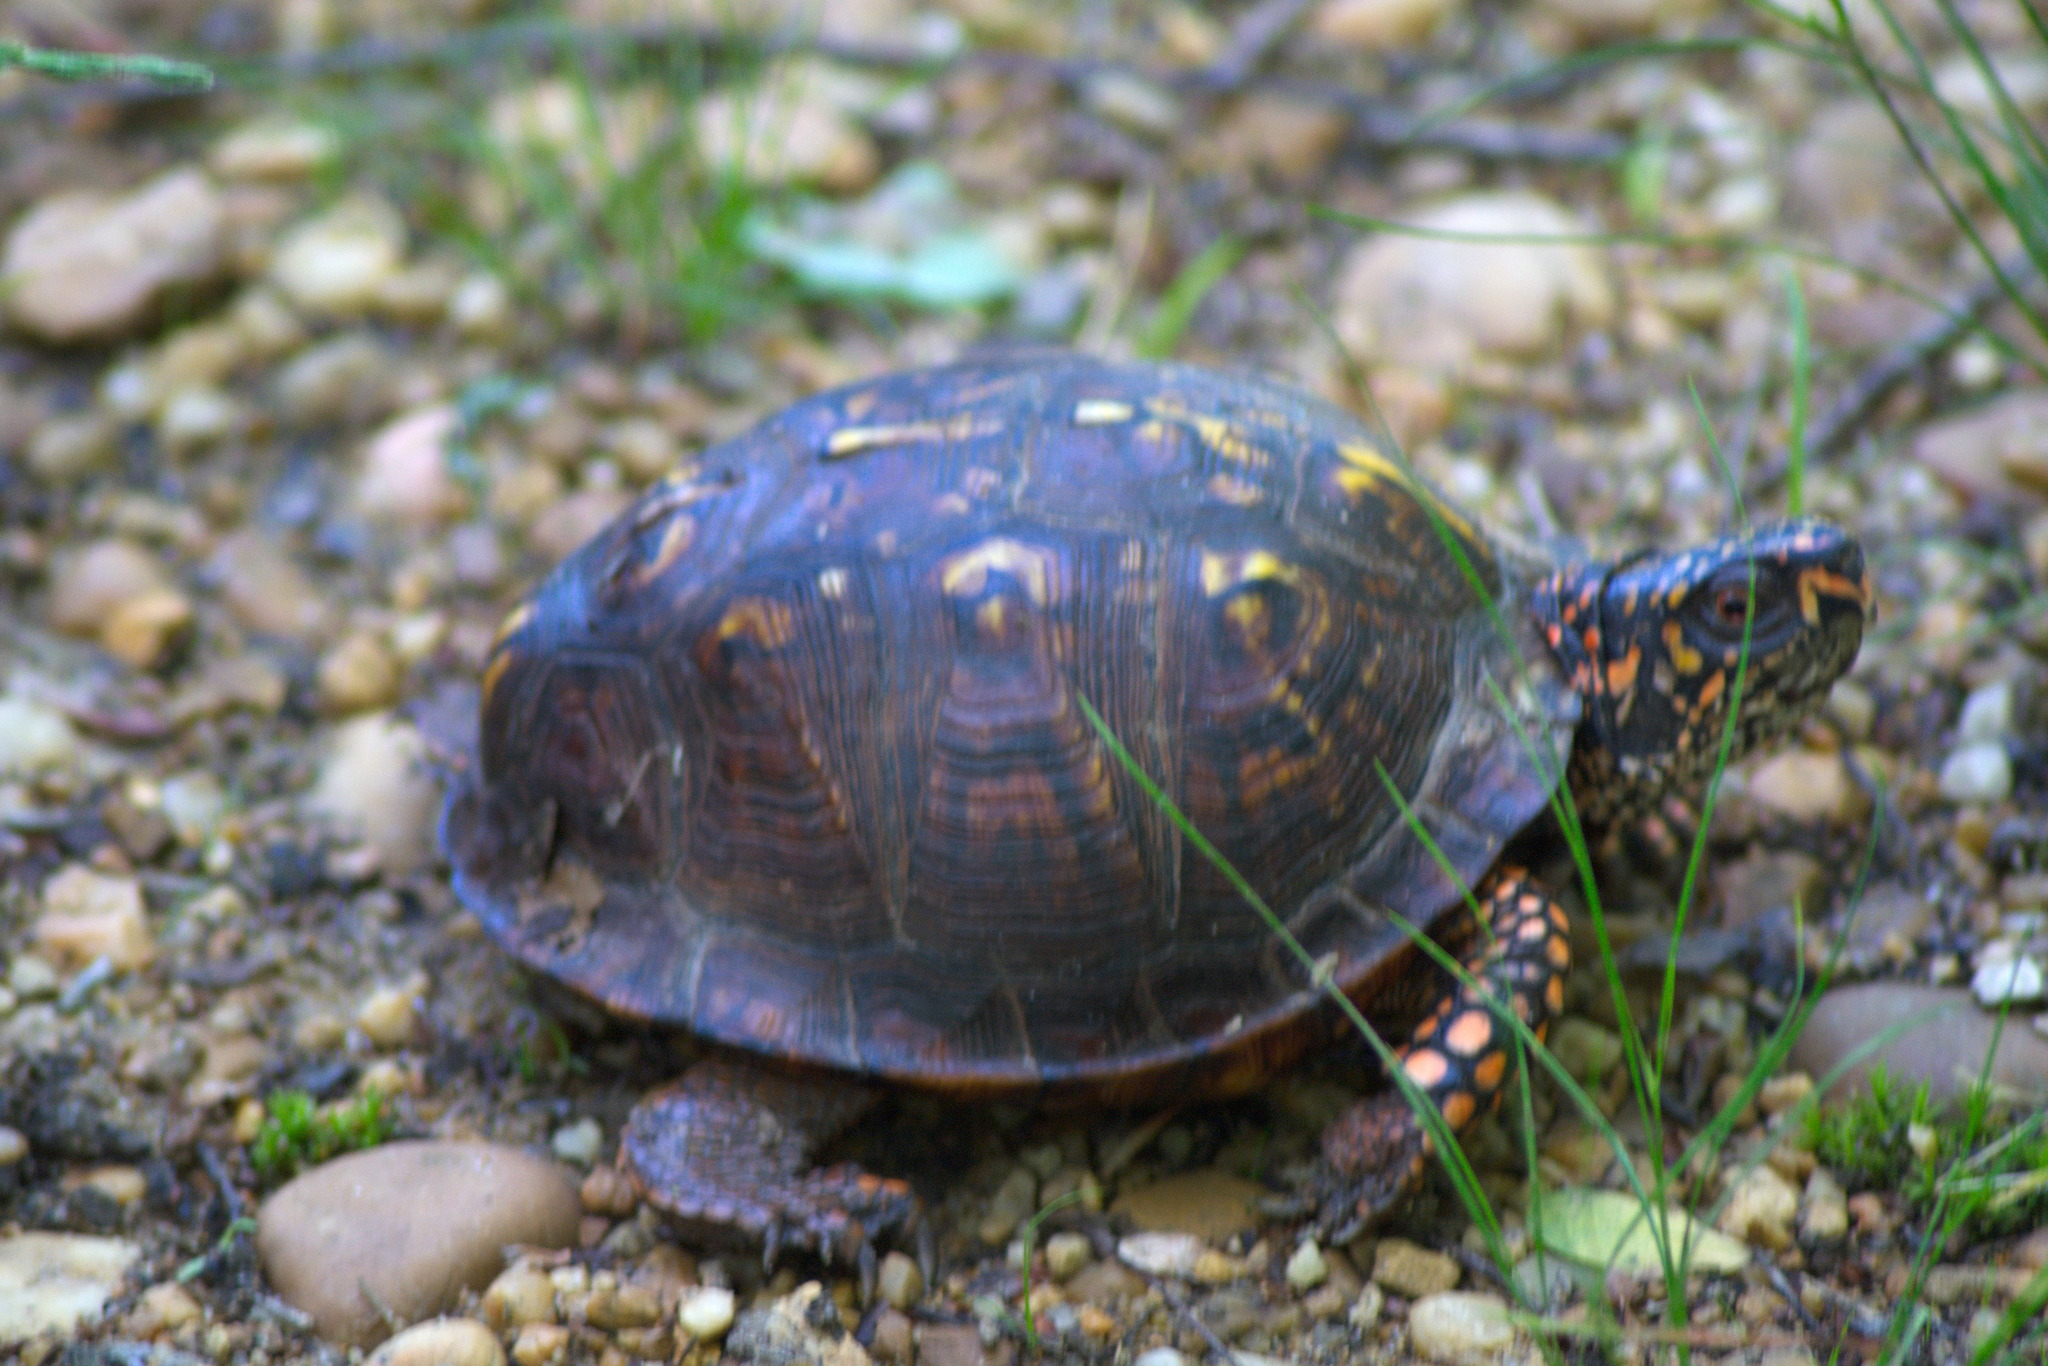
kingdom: Animalia
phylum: Chordata
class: Testudines
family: Emydidae
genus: Terrapene
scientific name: Terrapene carolina
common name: Common box turtle
